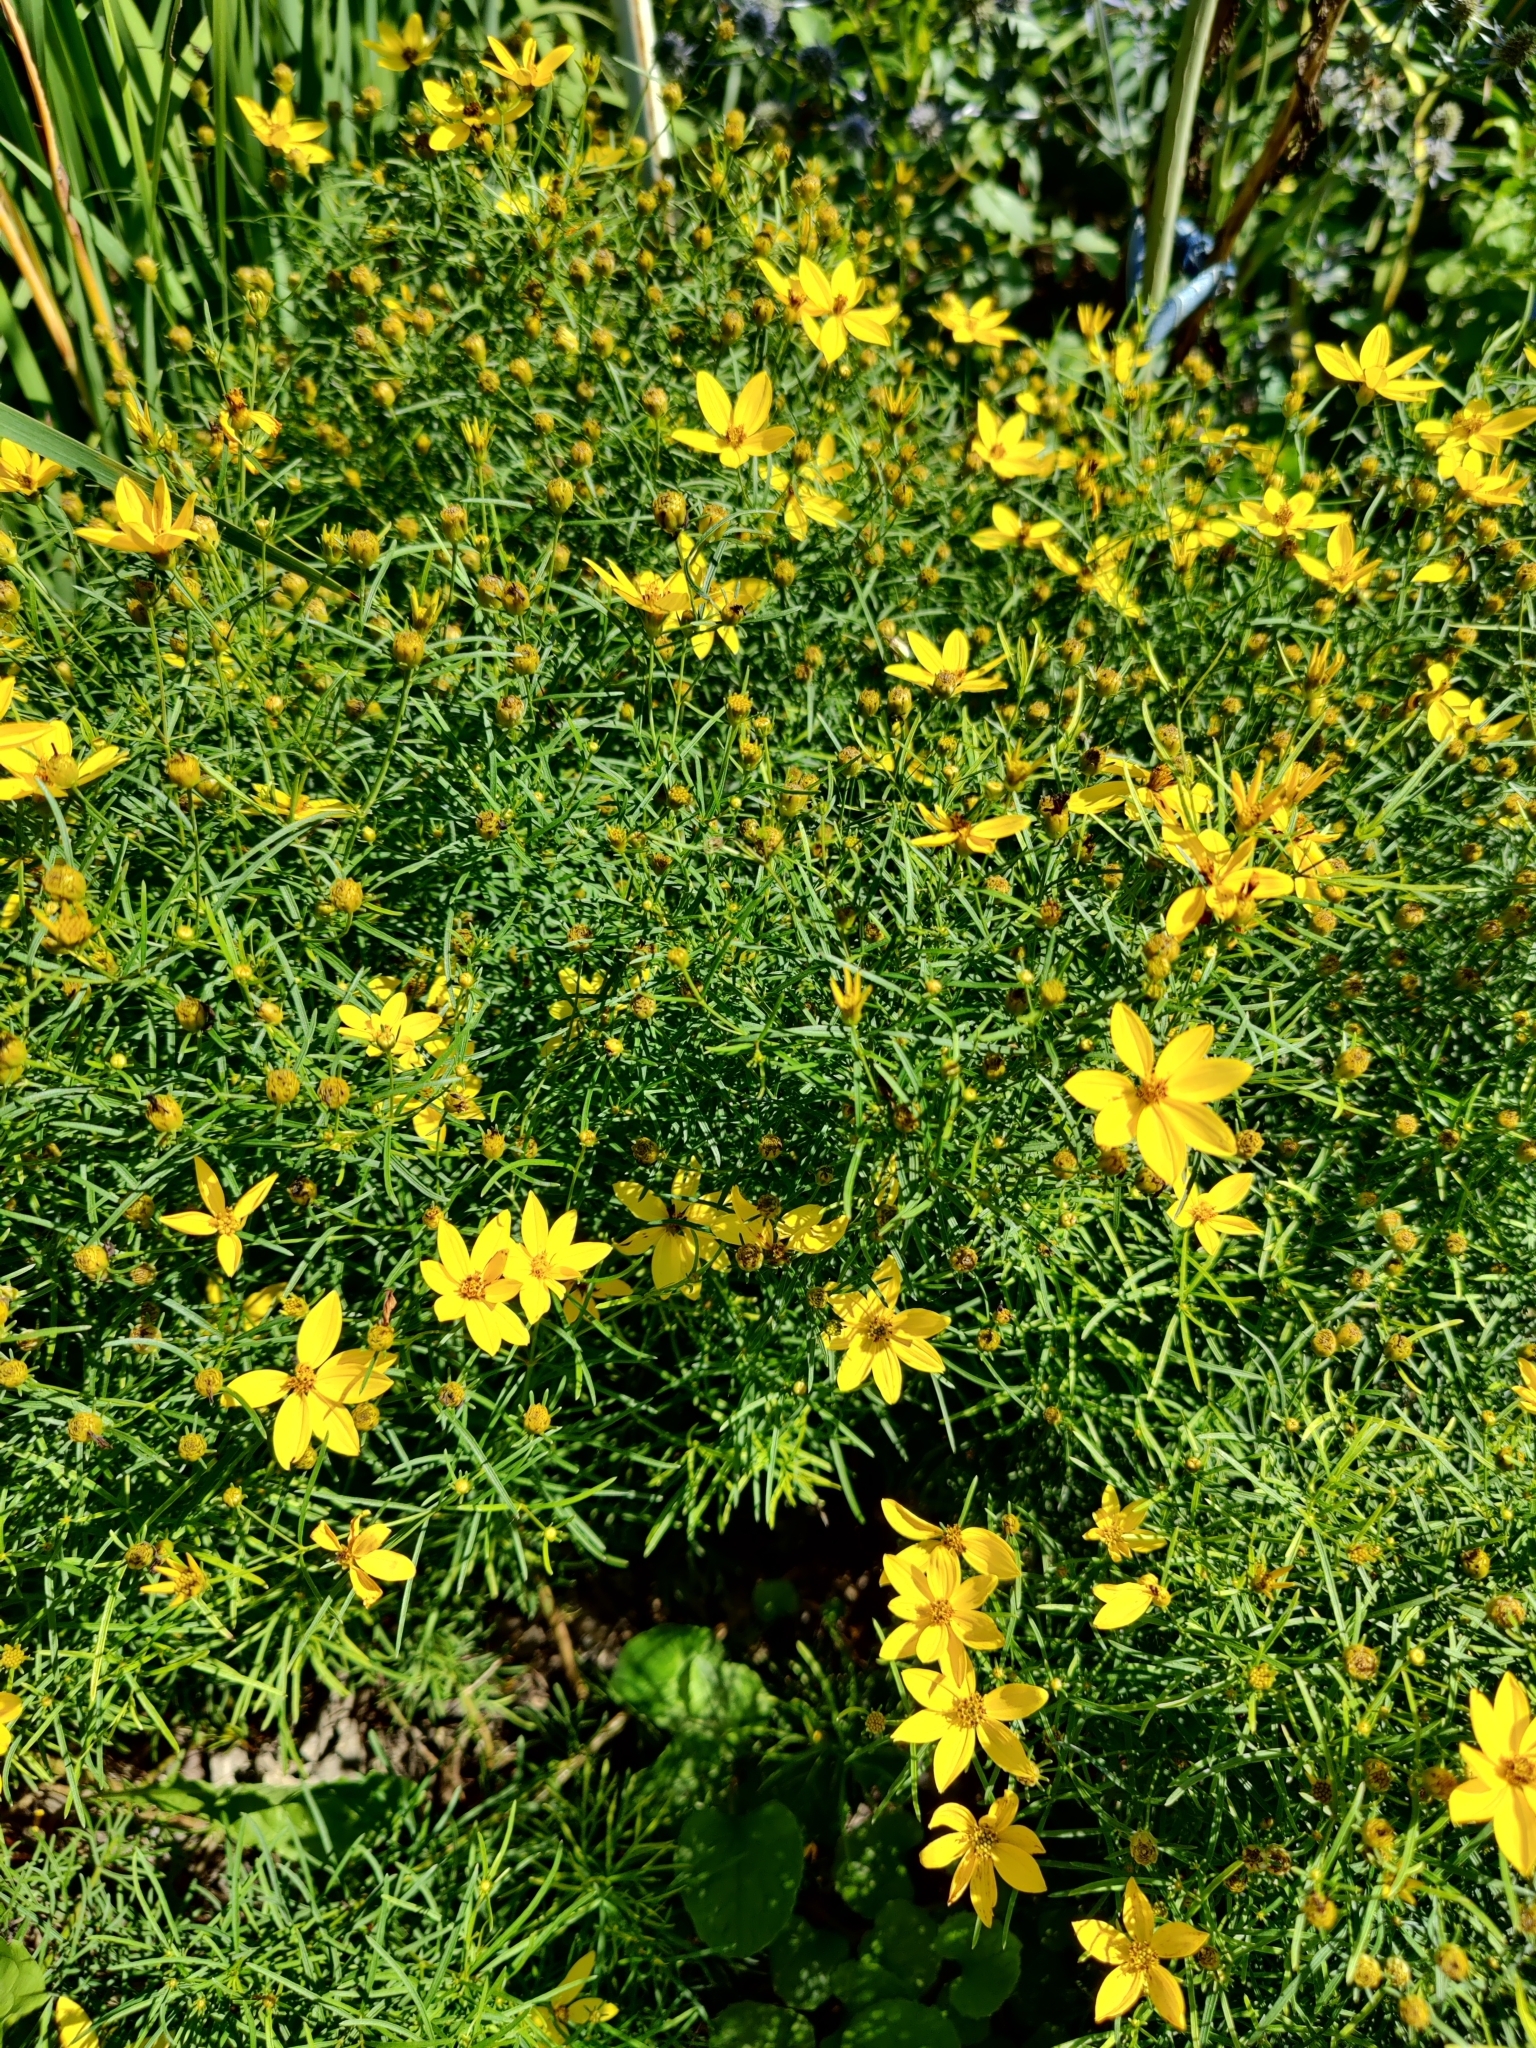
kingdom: Plantae
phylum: Tracheophyta
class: Magnoliopsida
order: Asterales
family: Asteraceae
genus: Coreopsis
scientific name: Coreopsis verticillata
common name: Whorled tickseed
